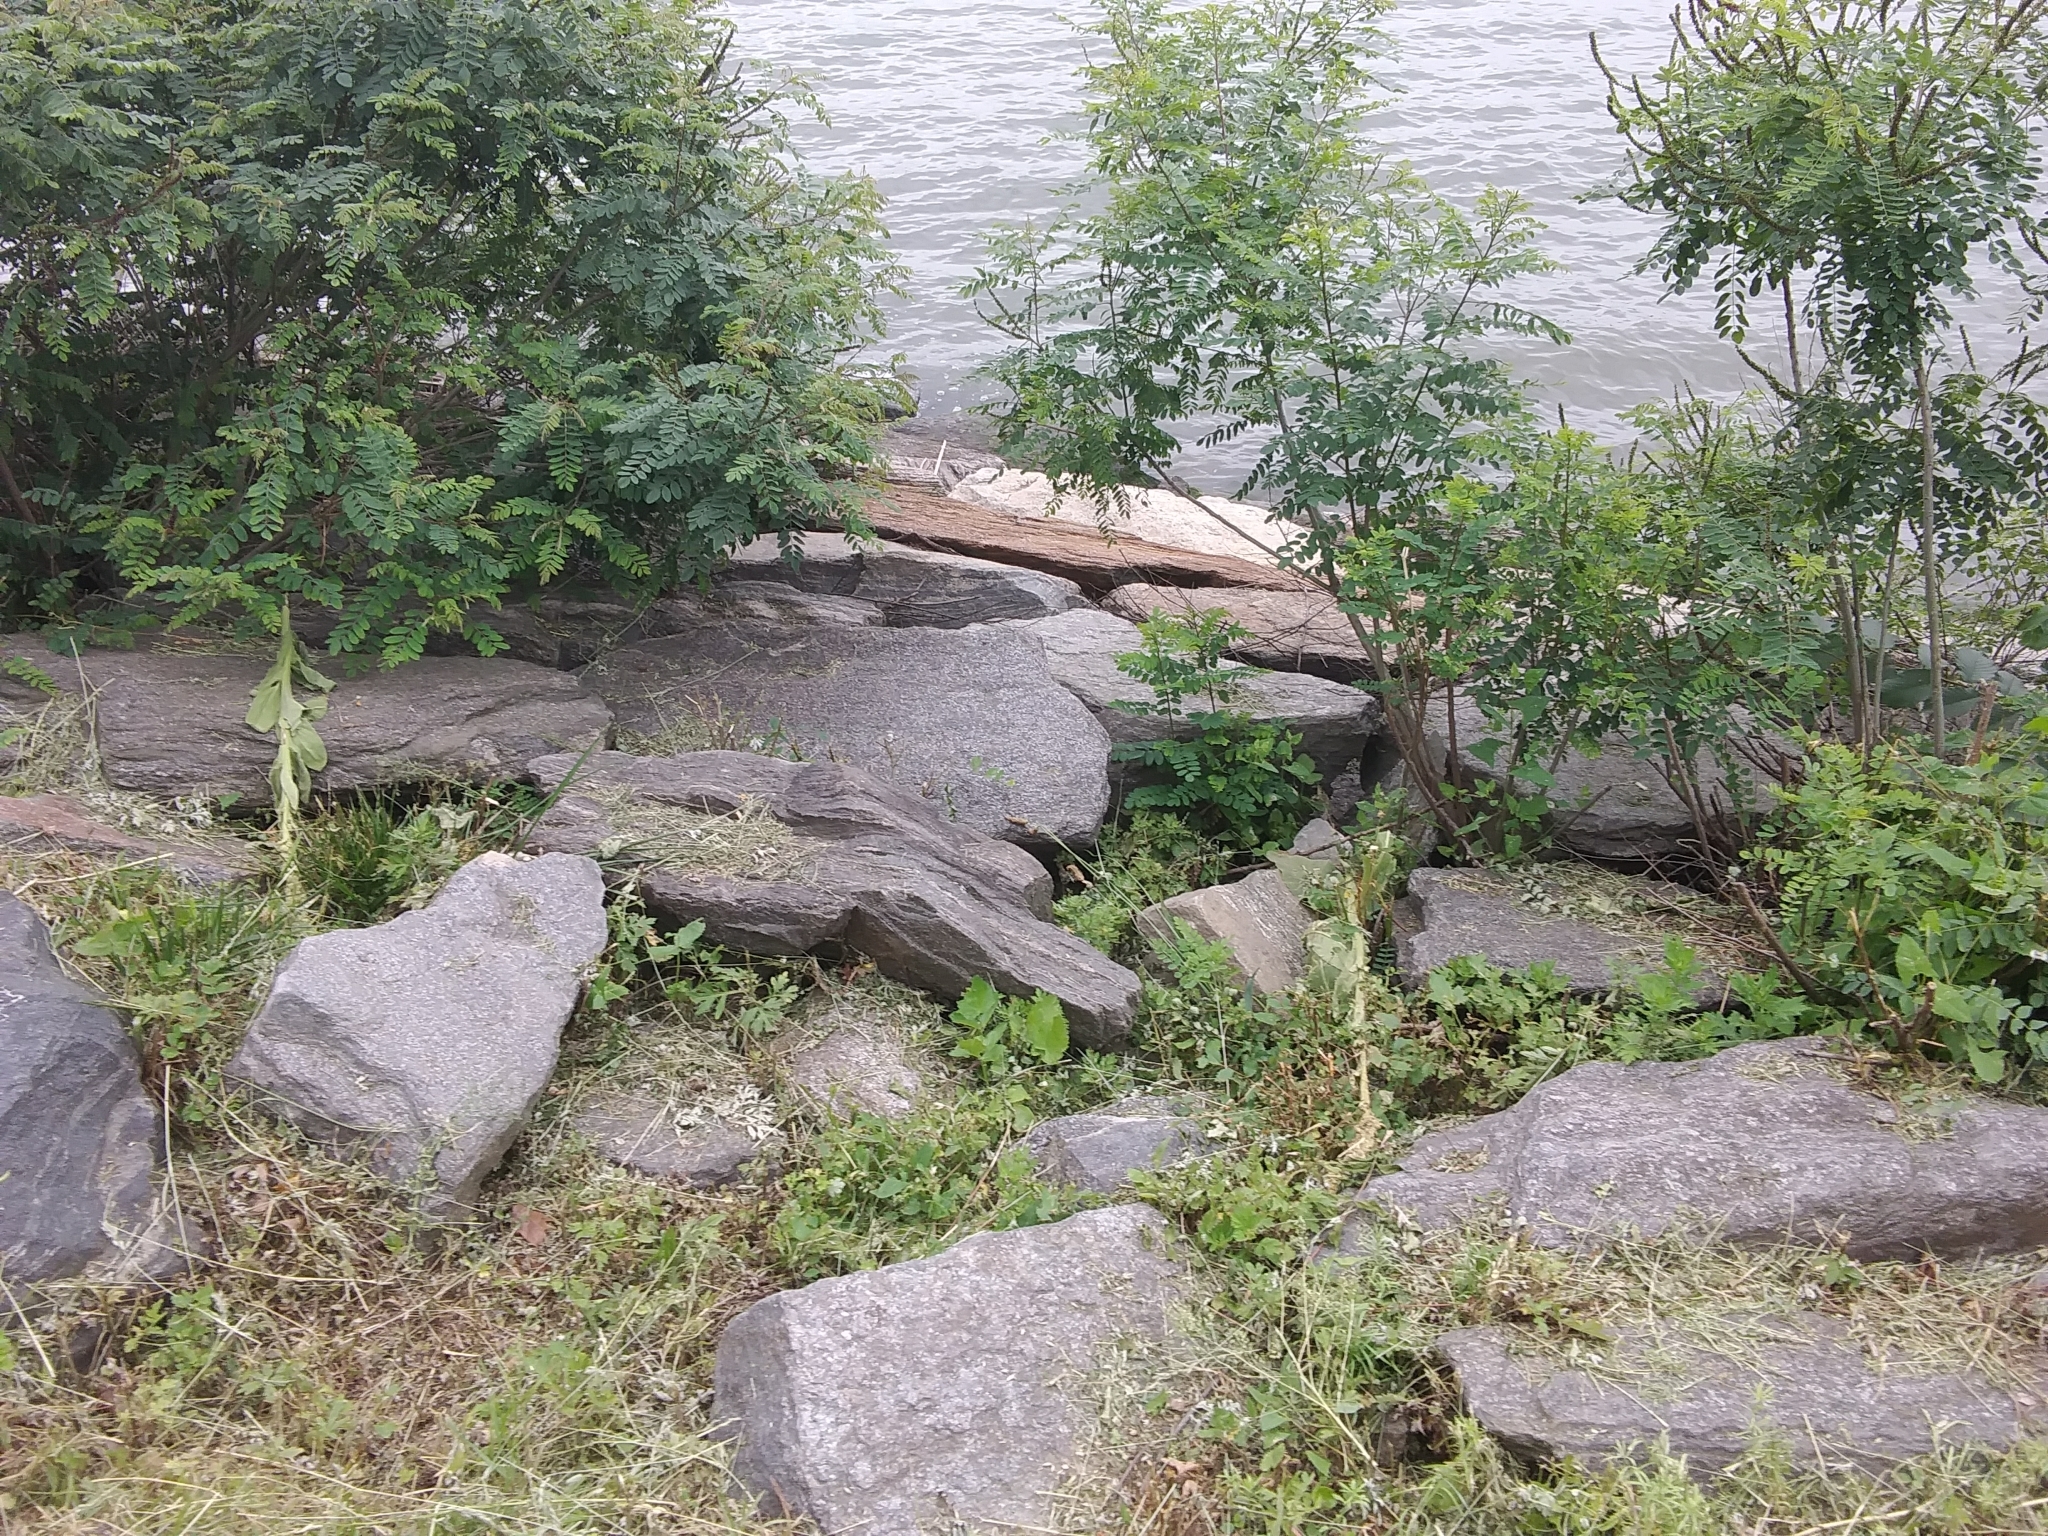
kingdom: Plantae
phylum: Tracheophyta
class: Magnoliopsida
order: Lamiales
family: Scrophulariaceae
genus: Verbascum
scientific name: Verbascum thapsus
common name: Common mullein
